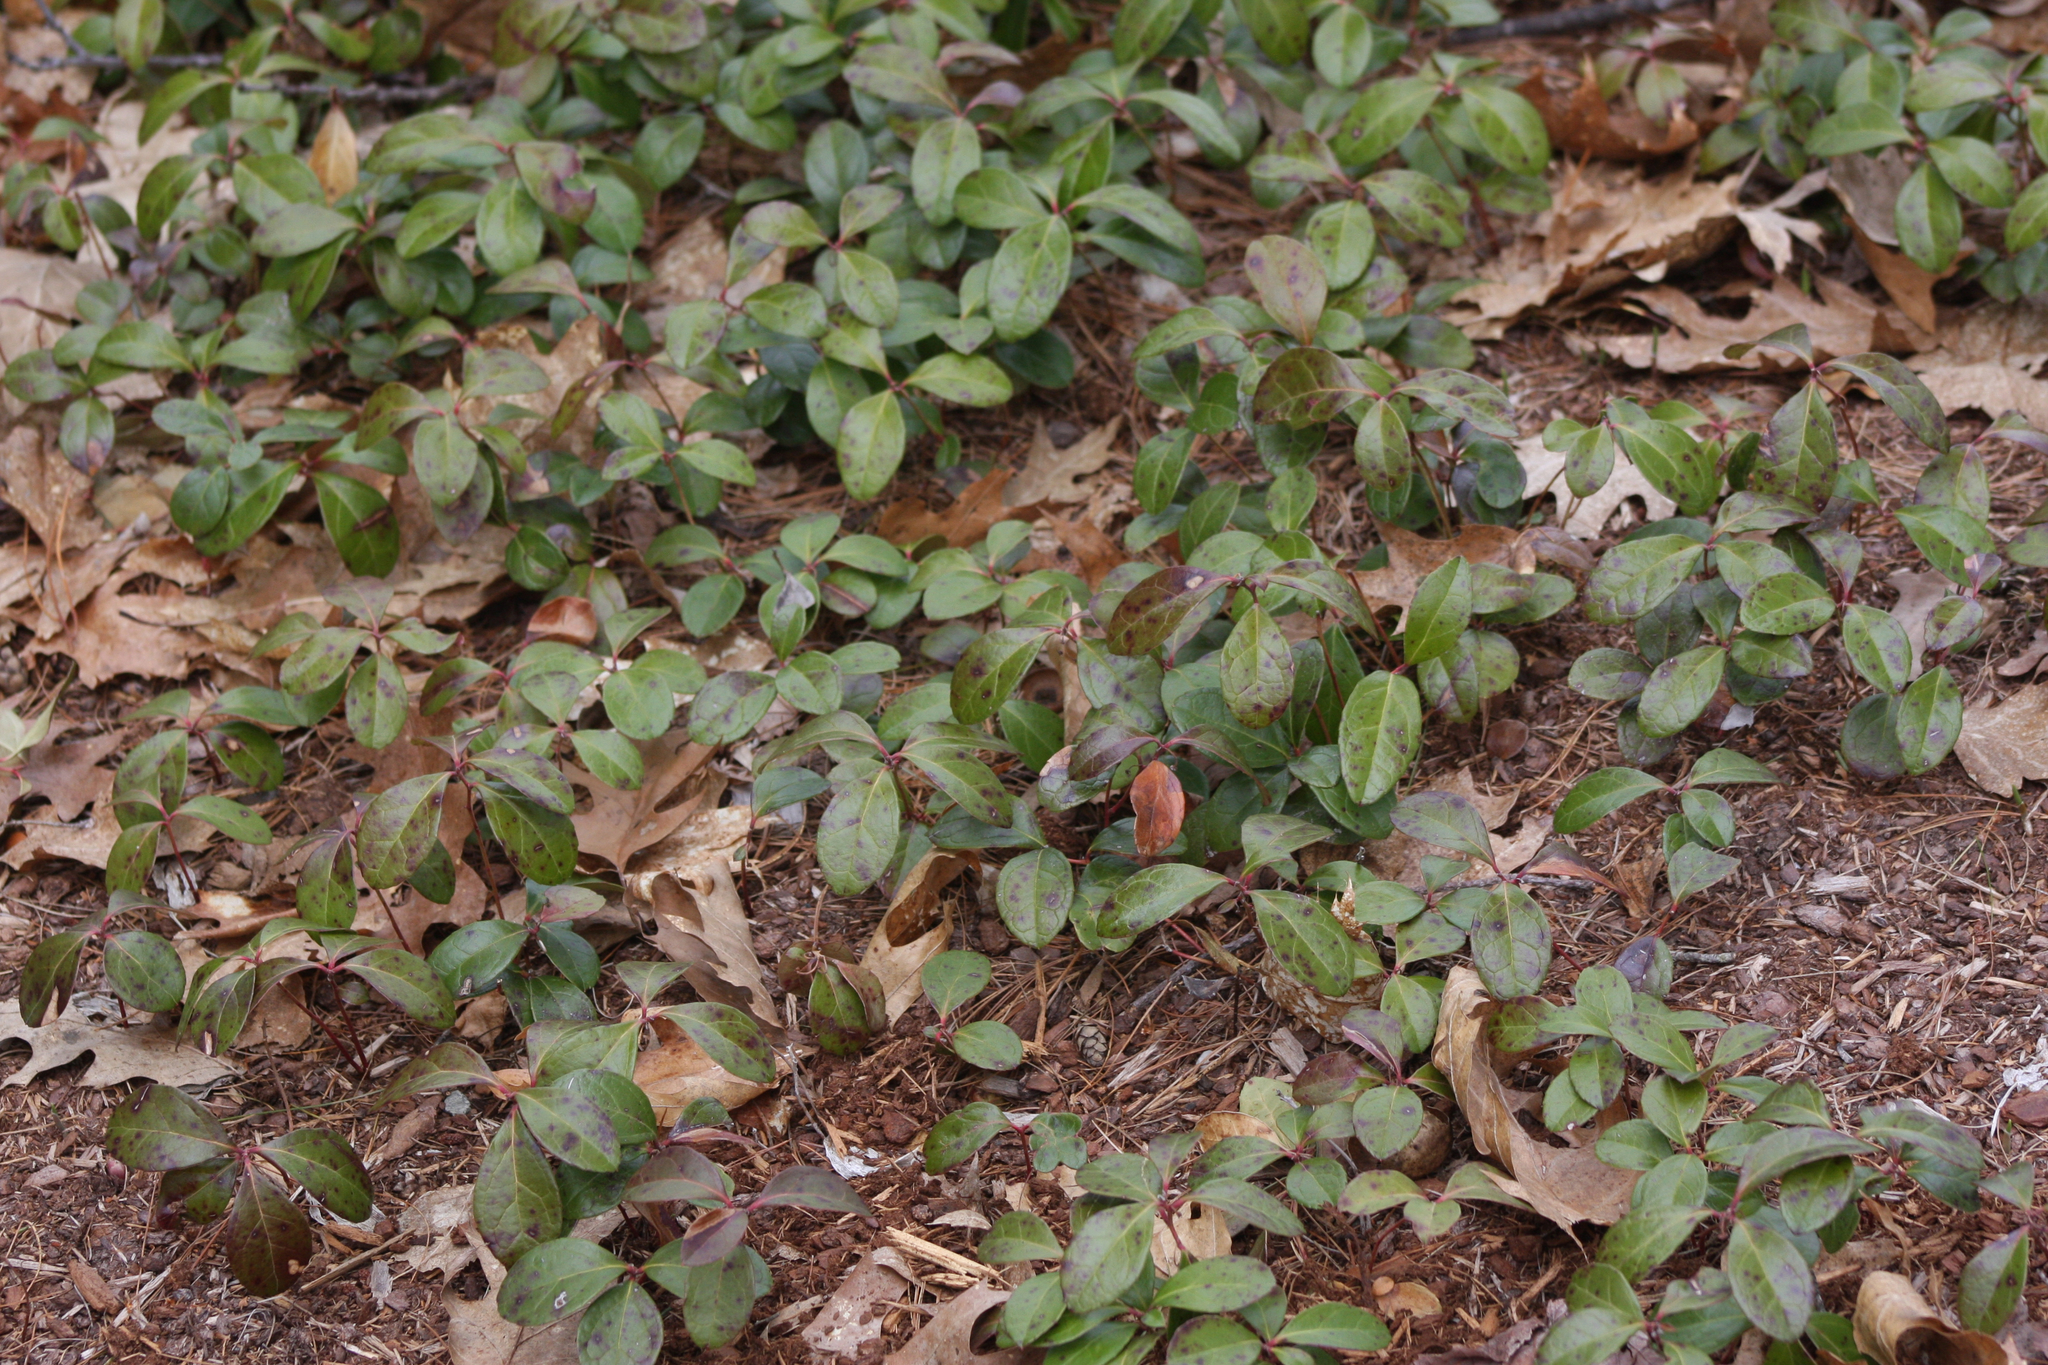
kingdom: Plantae
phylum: Tracheophyta
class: Magnoliopsida
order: Ericales
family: Ericaceae
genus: Gaultheria
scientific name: Gaultheria procumbens
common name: Checkerberry
